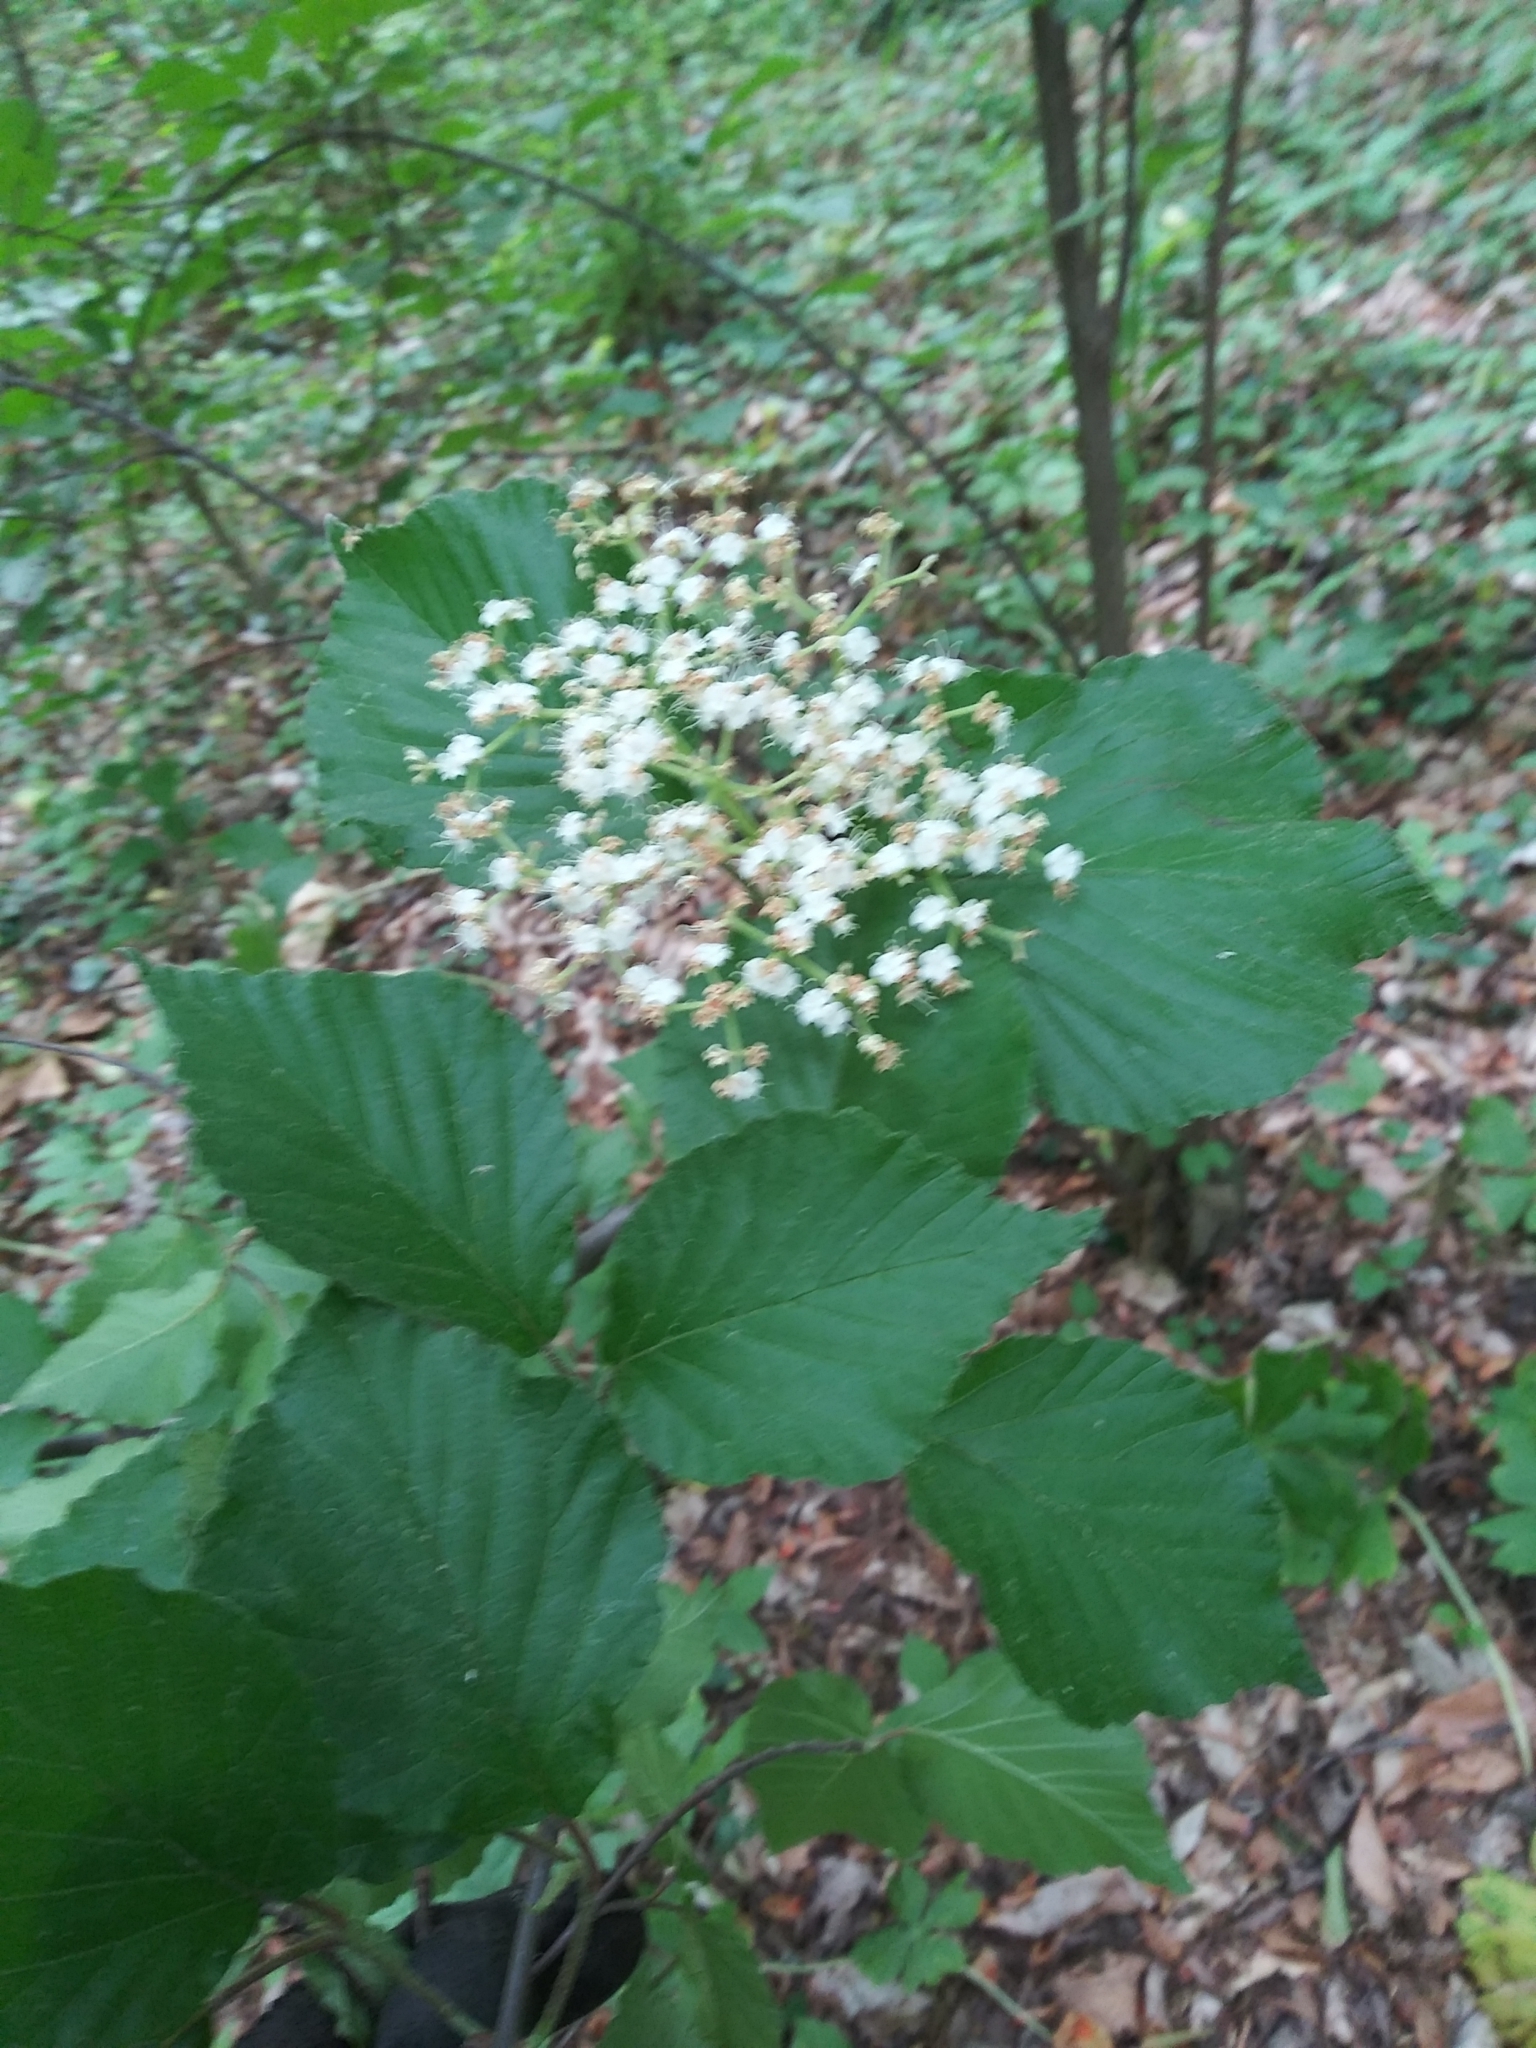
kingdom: Plantae
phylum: Tracheophyta
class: Magnoliopsida
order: Dipsacales
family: Viburnaceae
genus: Viburnum
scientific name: Viburnum dilatatum
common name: Linden arrowwood
